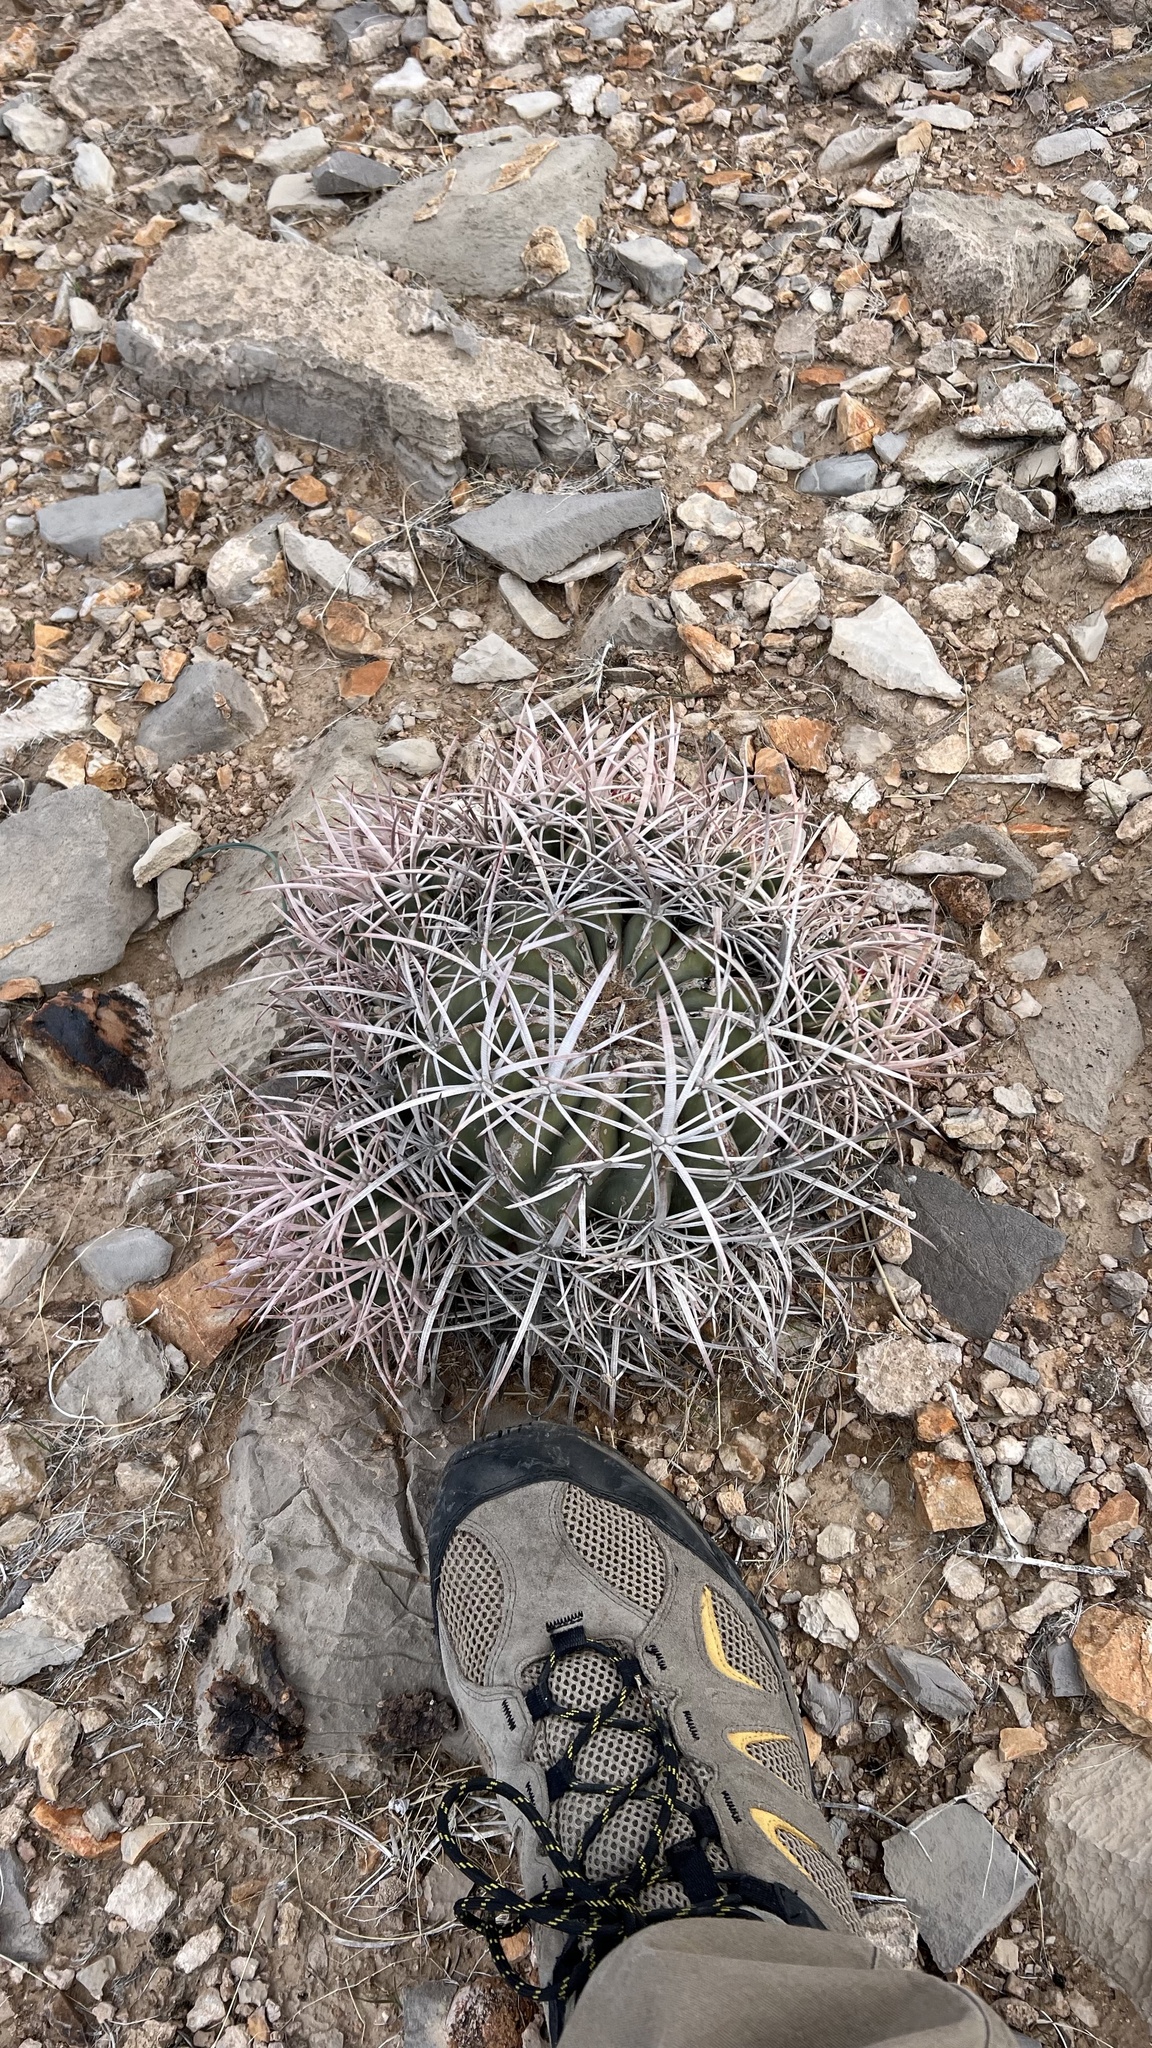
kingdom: Plantae
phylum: Tracheophyta
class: Magnoliopsida
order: Caryophyllales
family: Cactaceae
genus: Echinocactus
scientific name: Echinocactus polycephalus
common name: Cottontop cactus
